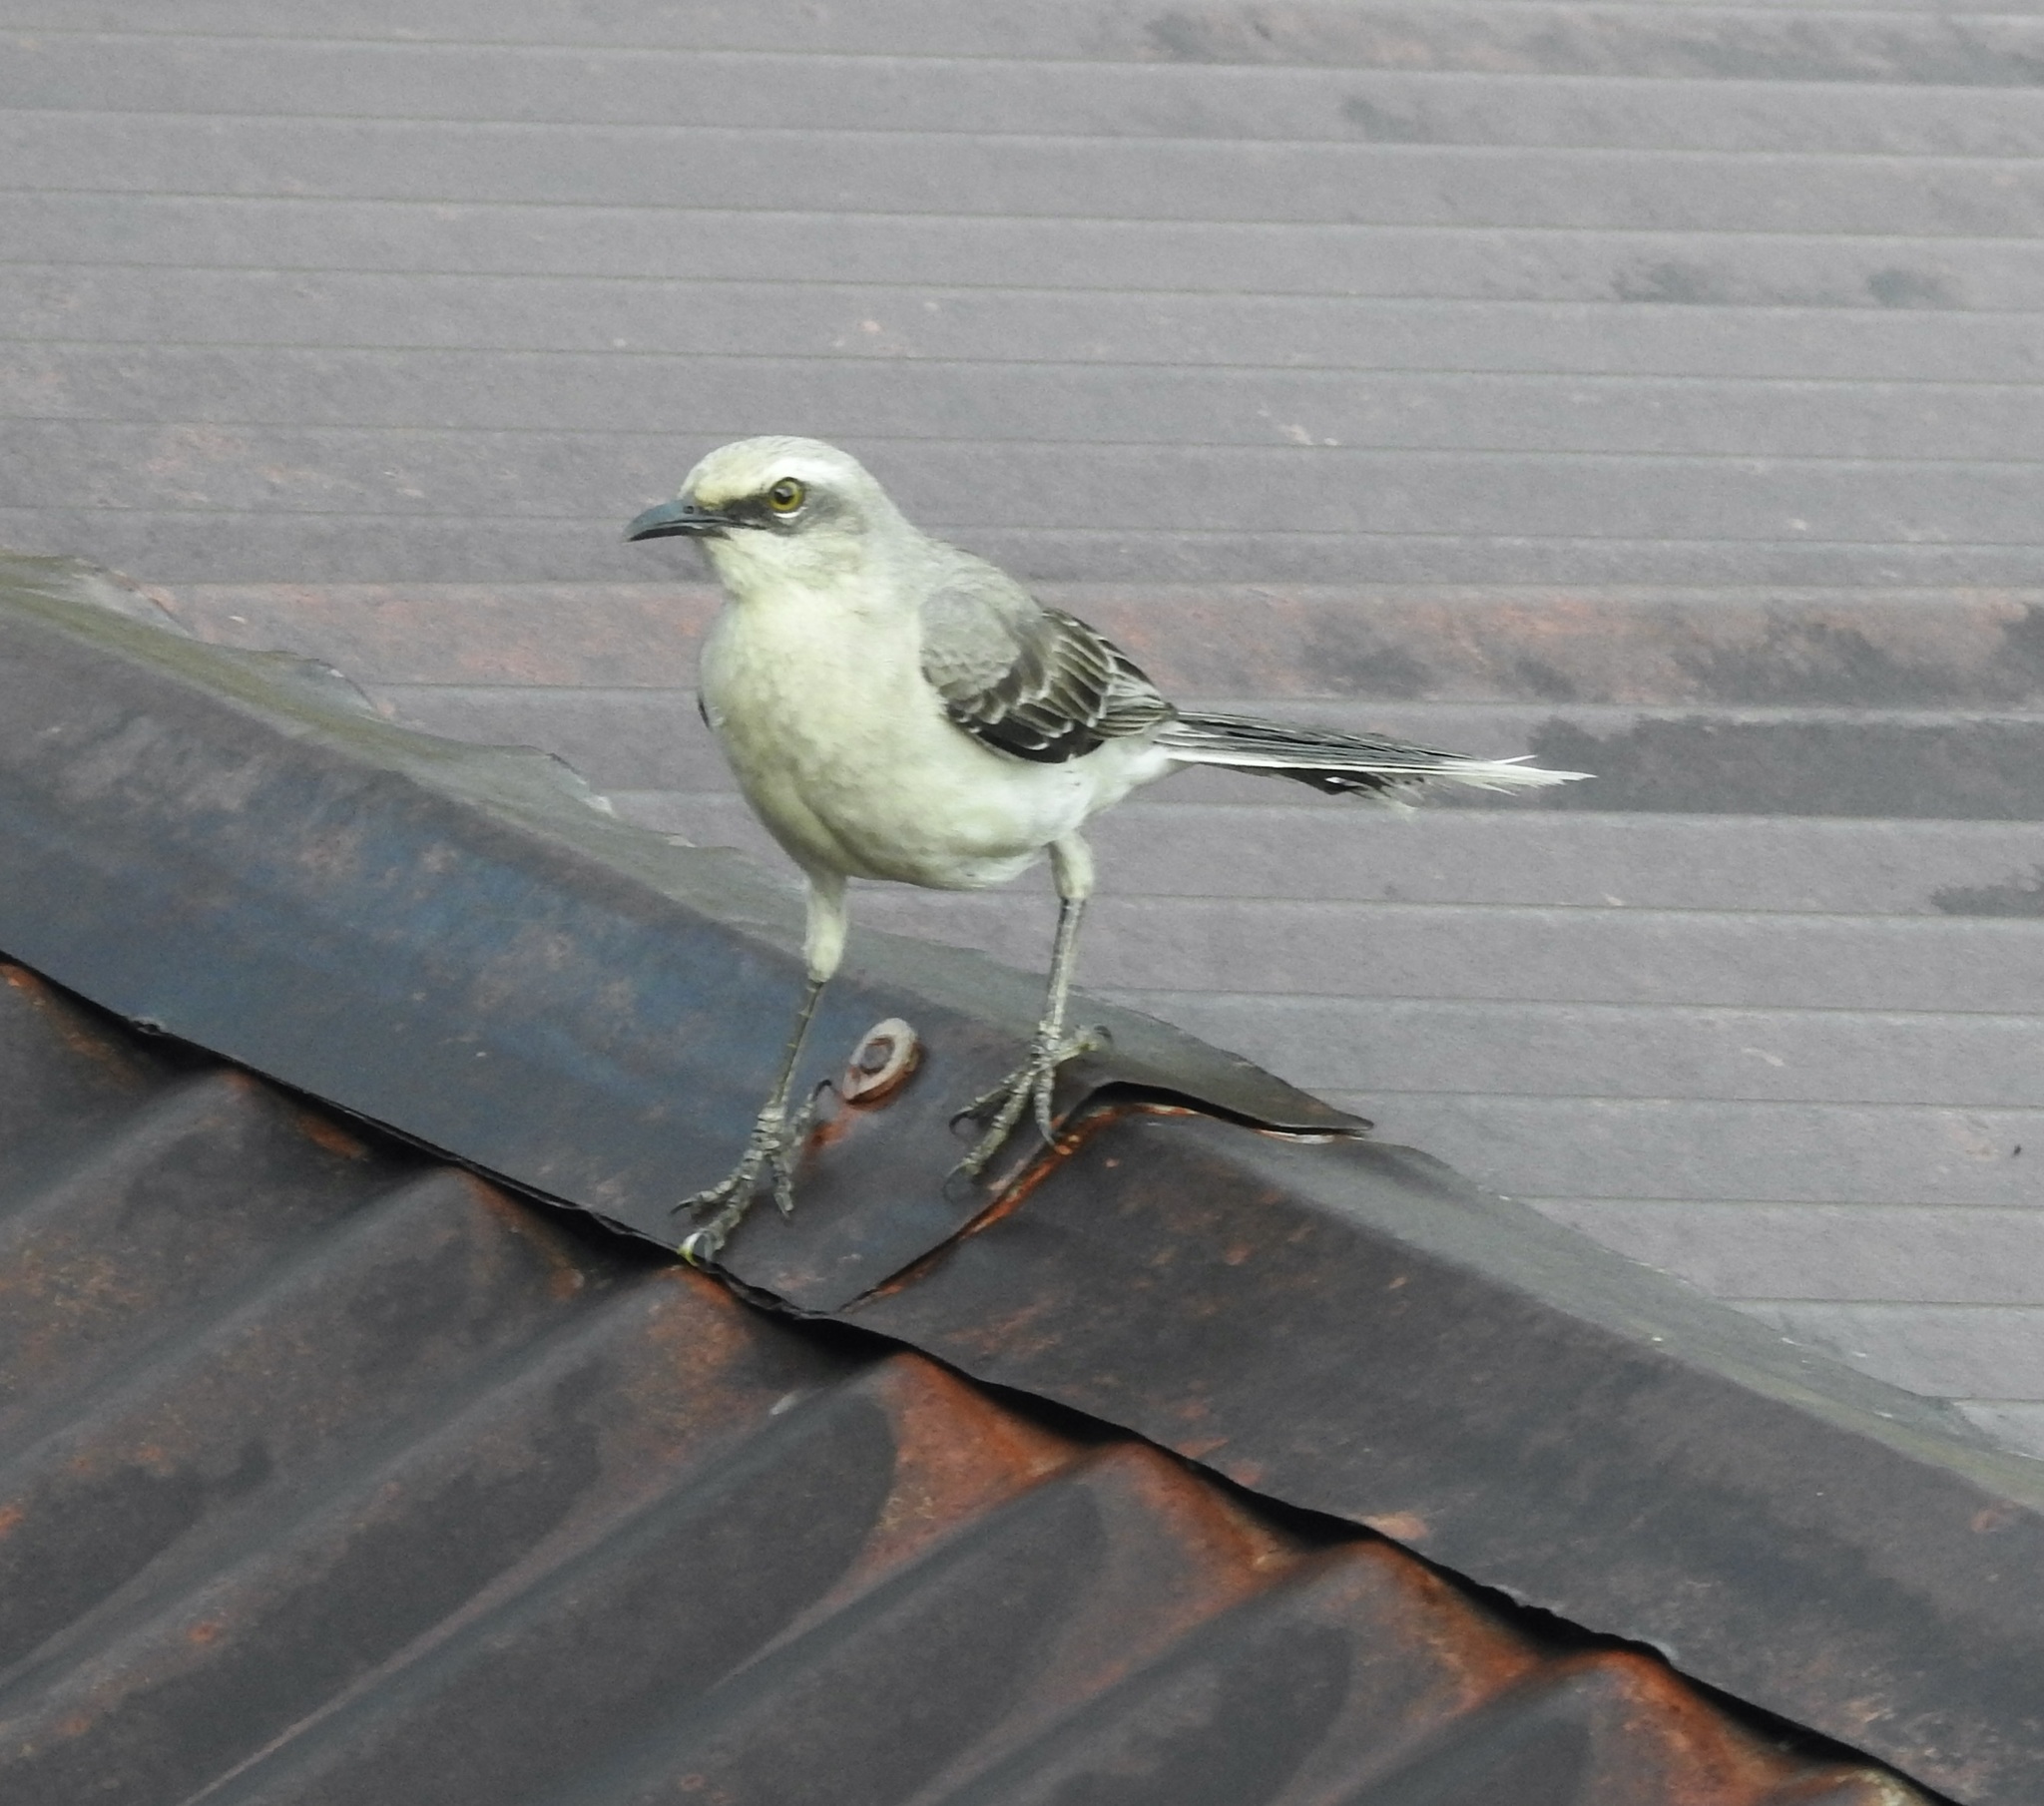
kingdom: Animalia
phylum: Chordata
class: Aves
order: Passeriformes
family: Mimidae
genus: Mimus
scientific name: Mimus gilvus
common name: Tropical mockingbird
